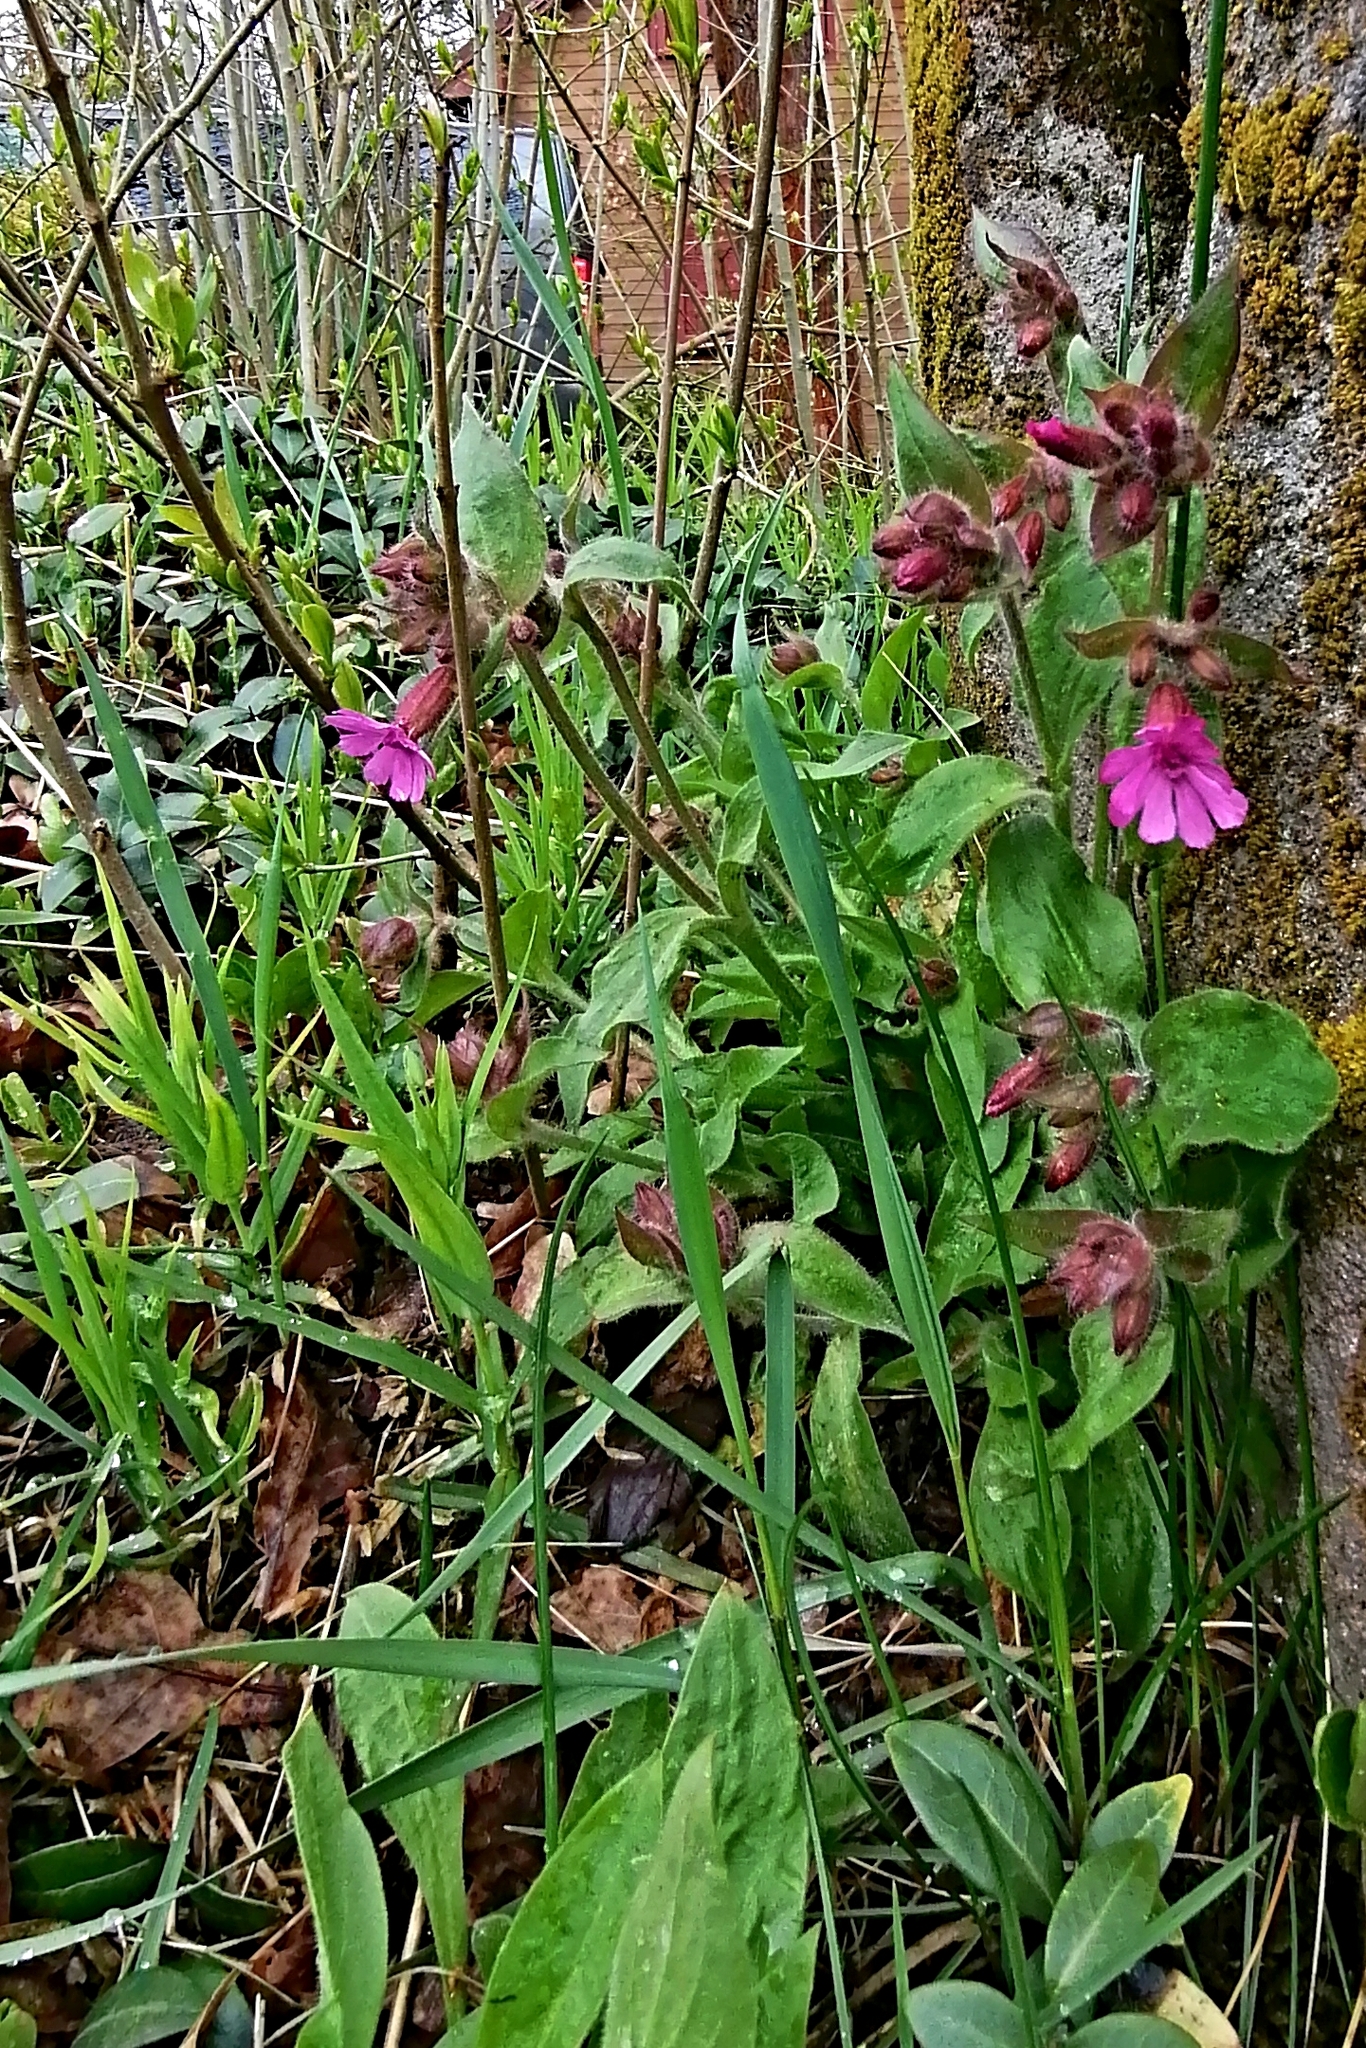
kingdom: Plantae
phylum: Tracheophyta
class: Magnoliopsida
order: Caryophyllales
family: Caryophyllaceae
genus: Silene
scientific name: Silene dioica
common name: Red campion
